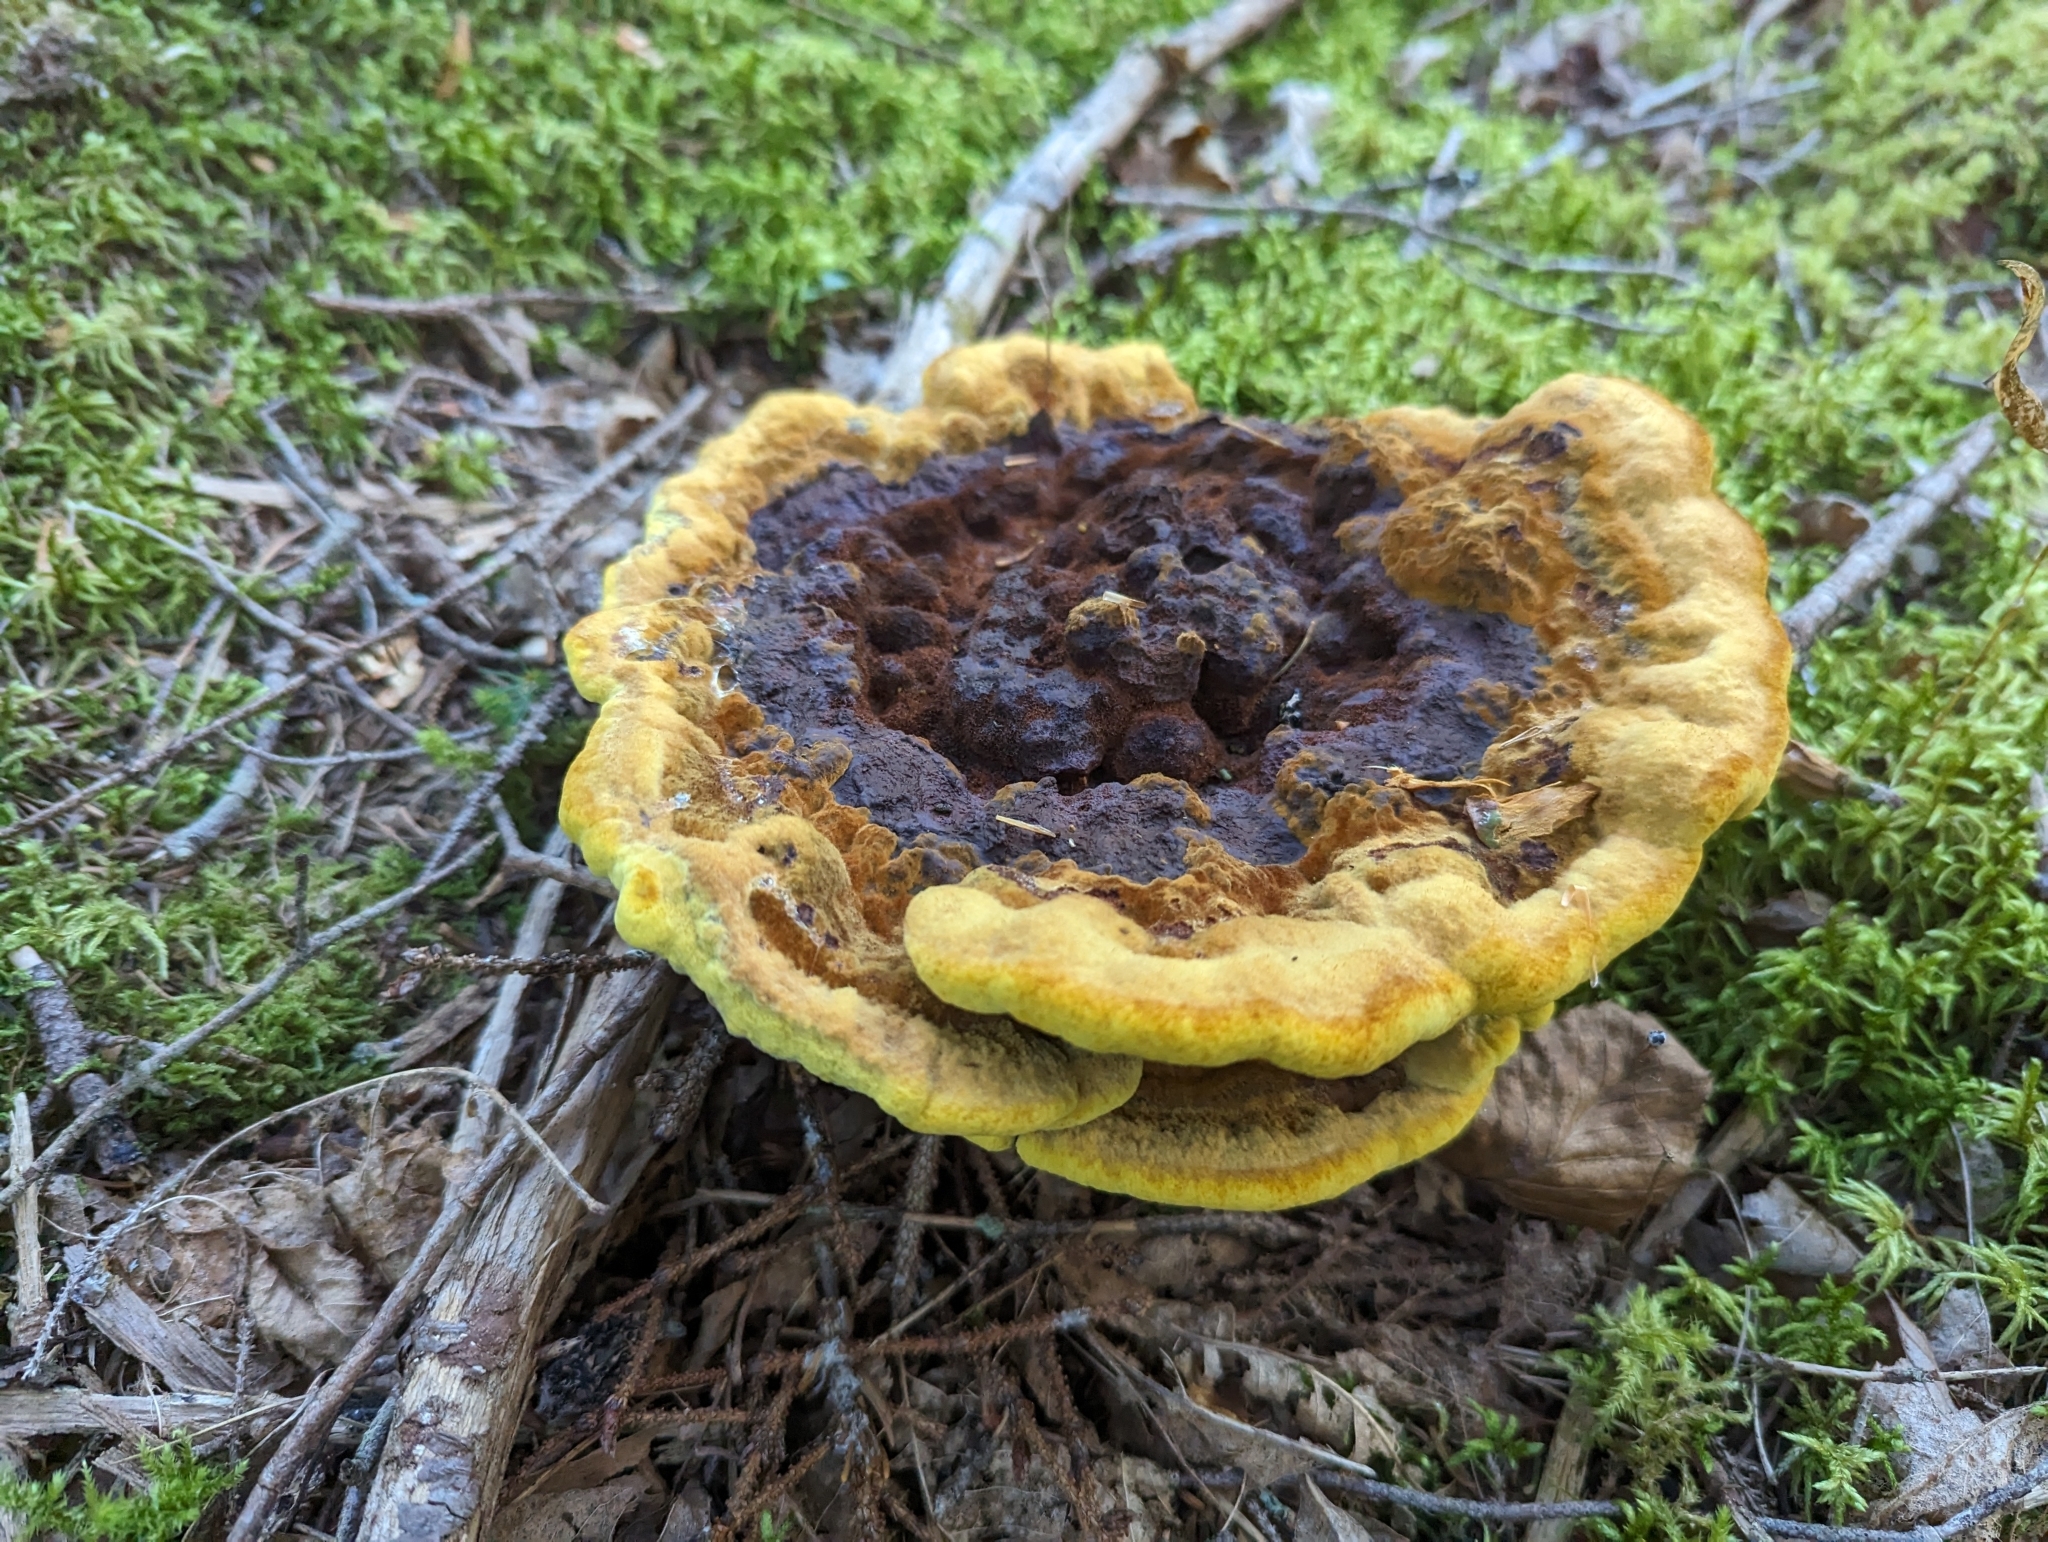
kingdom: Fungi
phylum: Basidiomycota
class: Agaricomycetes
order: Polyporales
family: Laetiporaceae
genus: Phaeolus
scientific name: Phaeolus schweinitzii
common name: Dyer's mazegill
